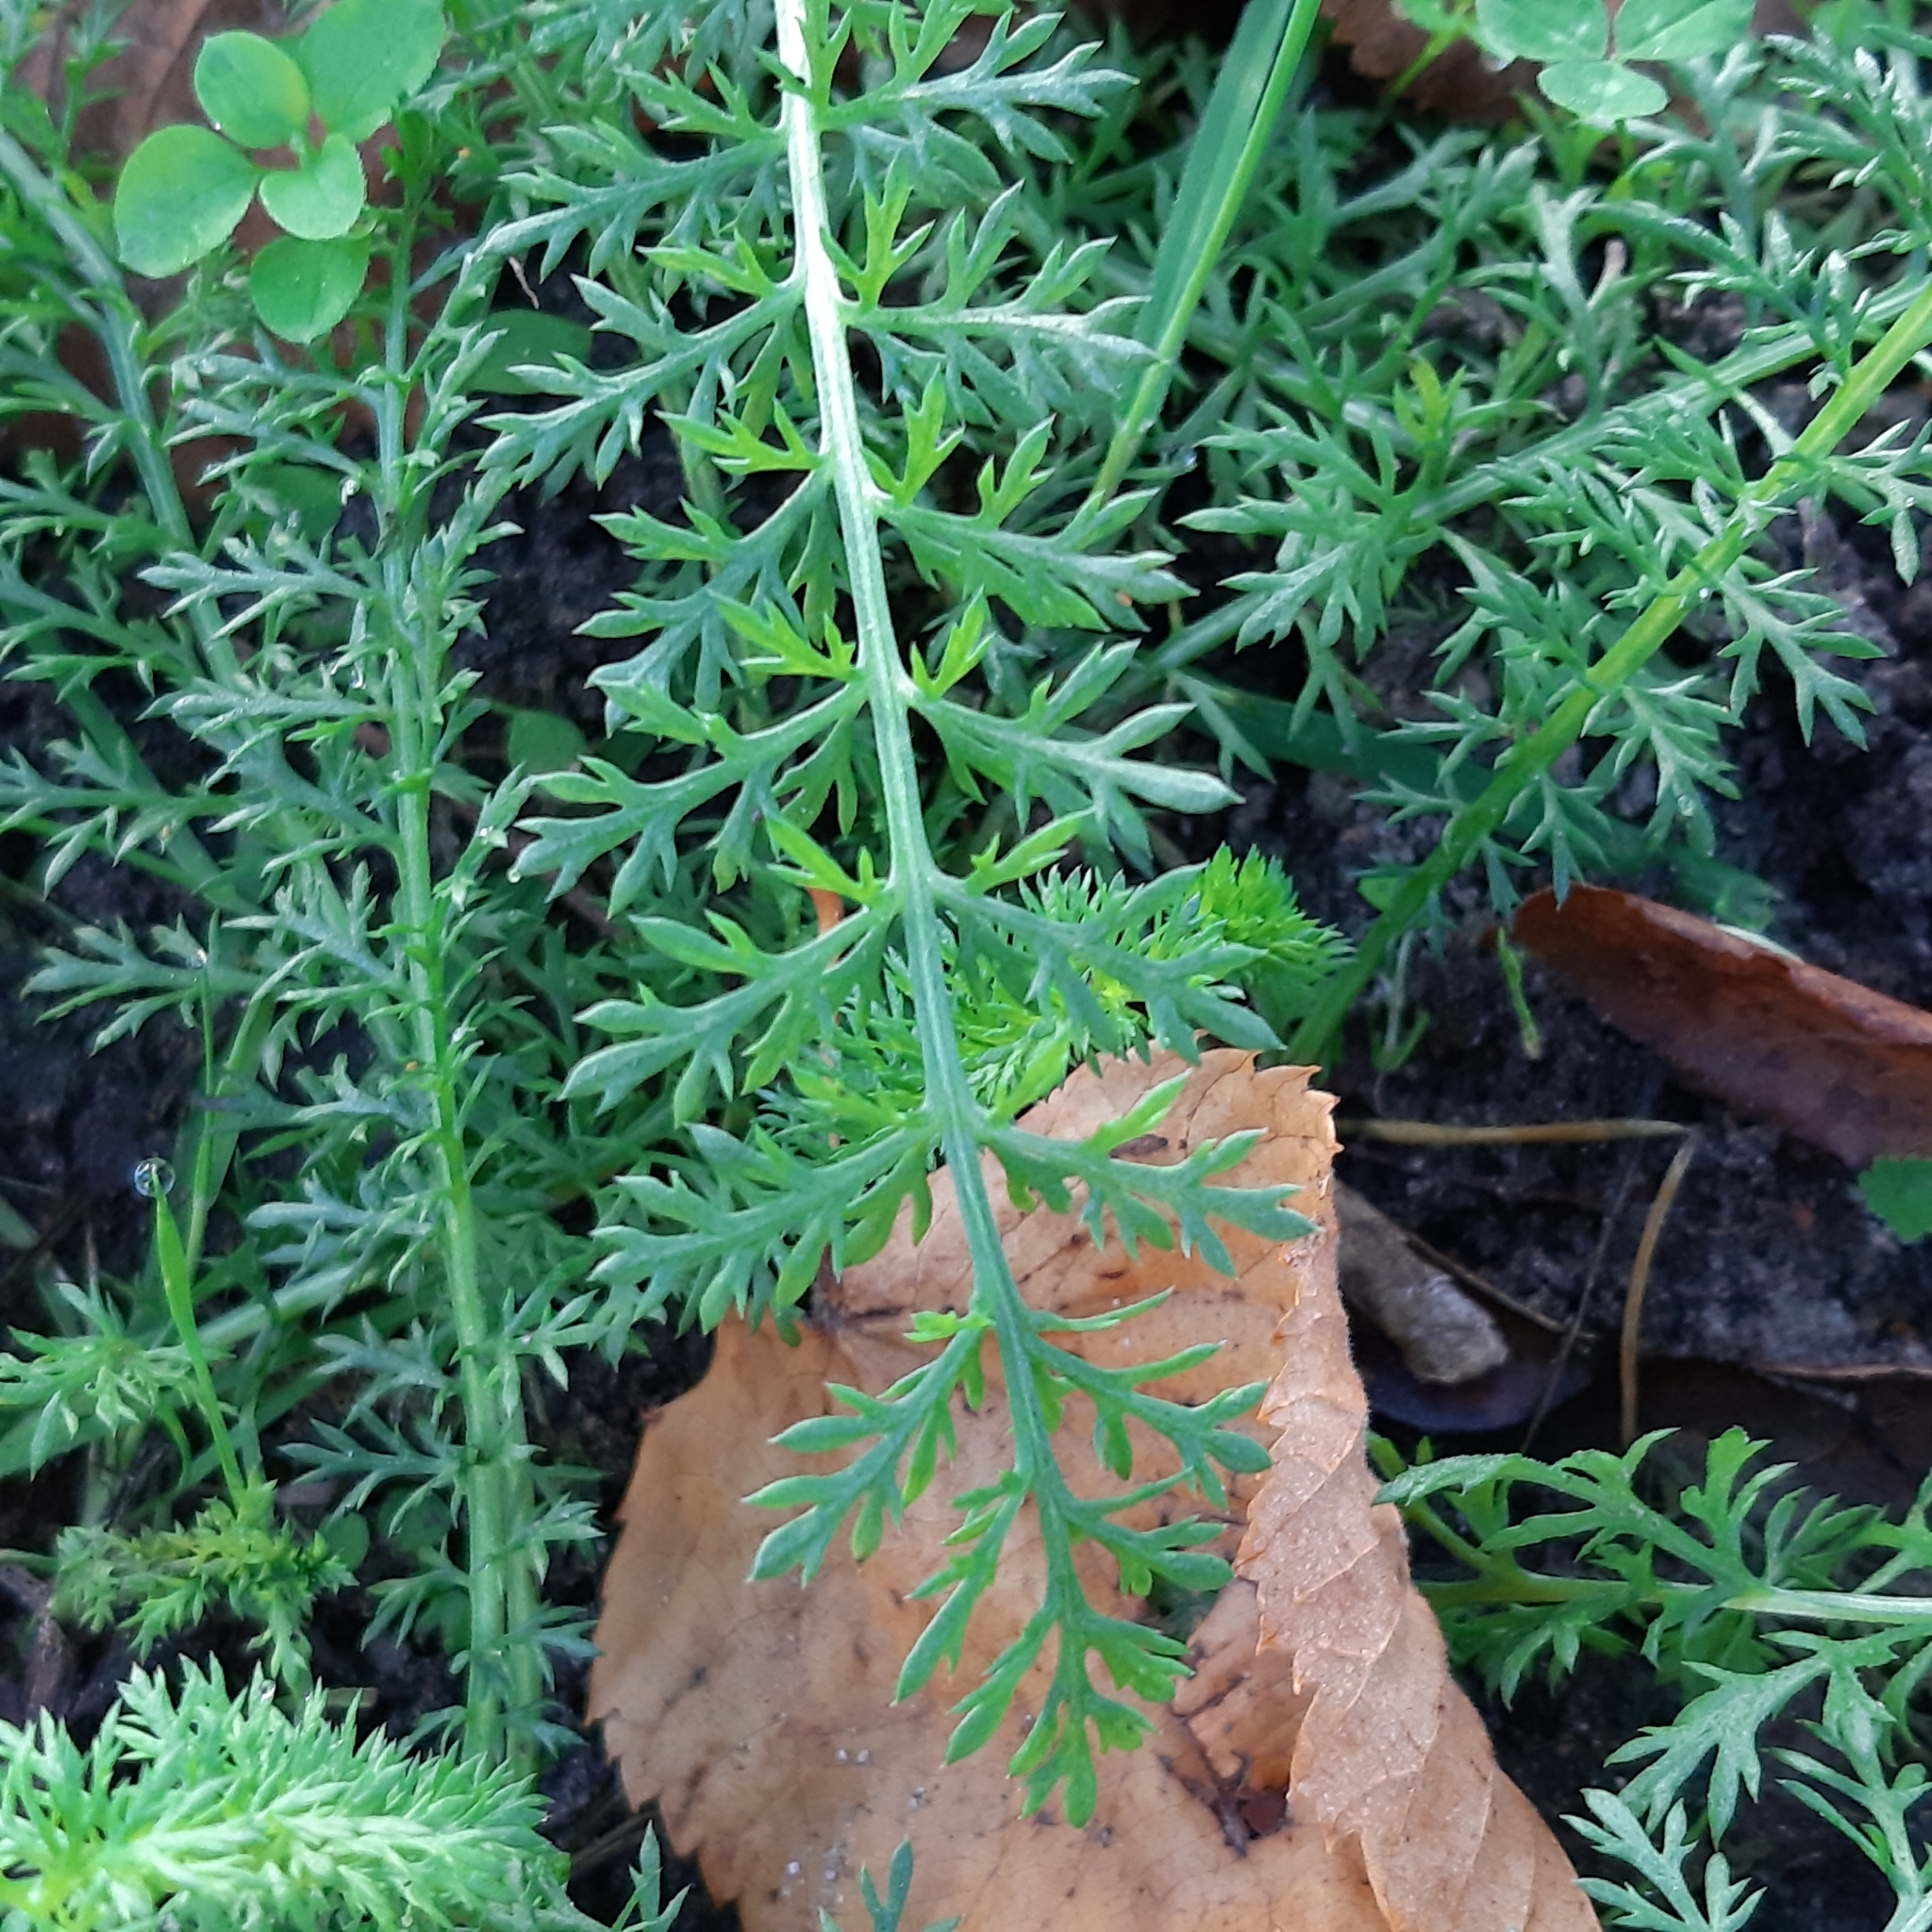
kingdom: Plantae
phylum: Tracheophyta
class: Magnoliopsida
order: Asterales
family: Asteraceae
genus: Achillea
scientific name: Achillea millefolium
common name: Yarrow
